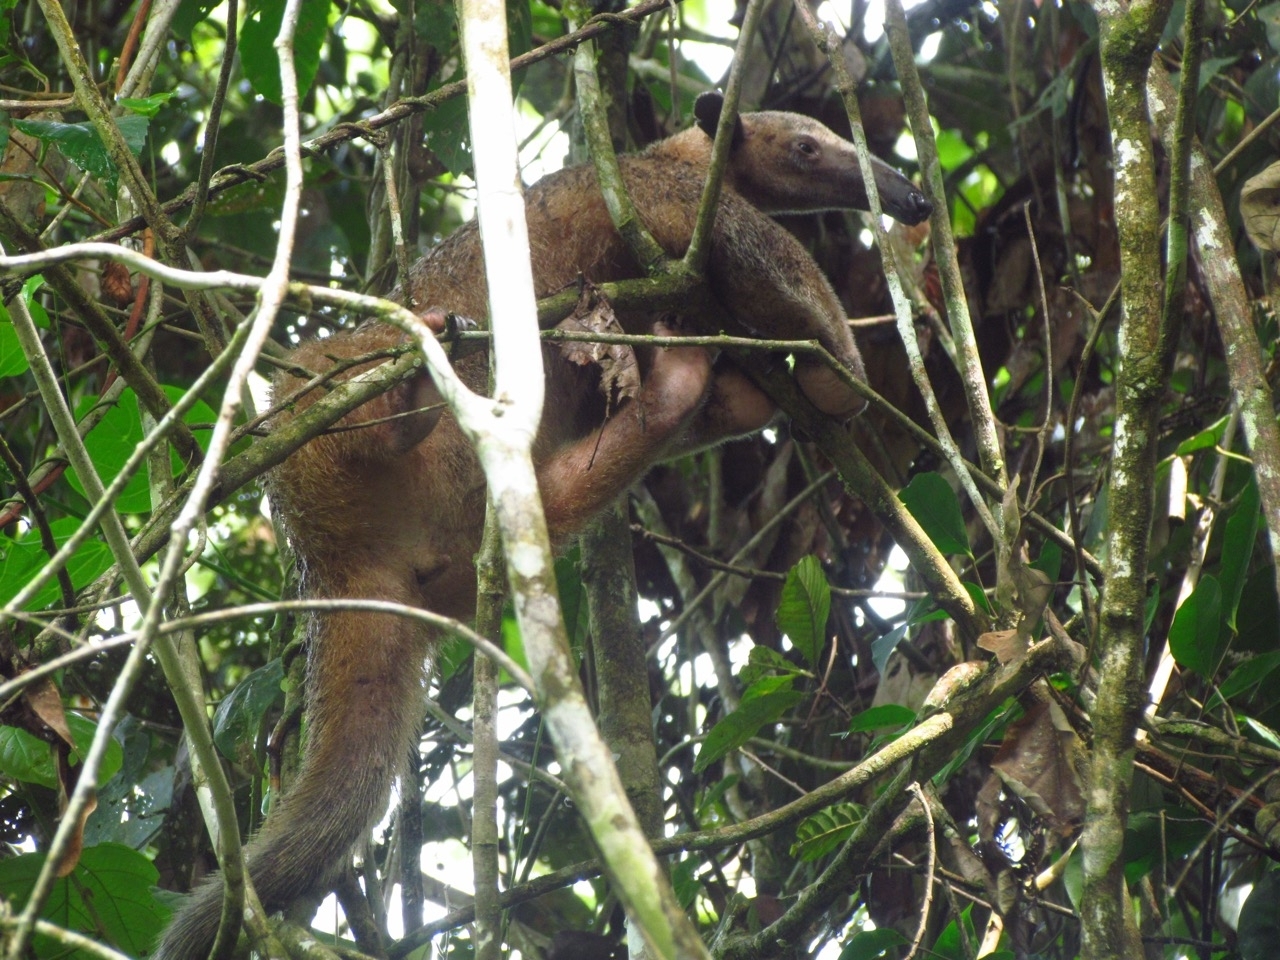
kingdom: Animalia
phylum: Chordata
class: Mammalia
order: Pilosa
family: Myrmecophagidae
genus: Tamandua
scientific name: Tamandua tetradactyla
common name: Southern tamandua
